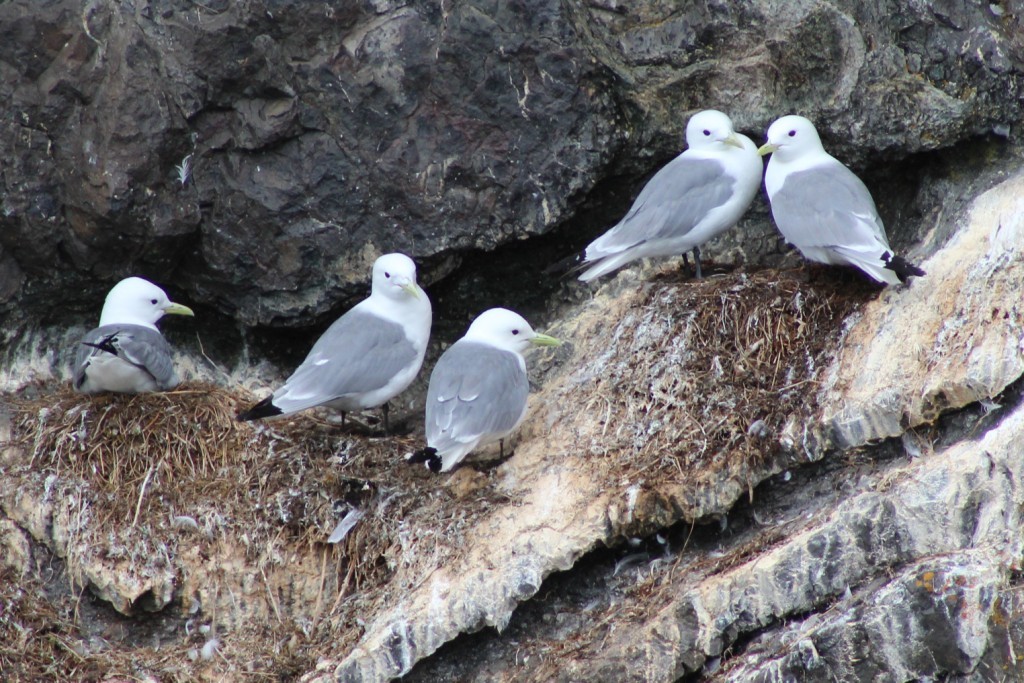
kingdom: Animalia
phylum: Chordata
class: Aves
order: Charadriiformes
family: Laridae
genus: Rissa
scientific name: Rissa tridactyla
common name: Black-legged kittiwake
